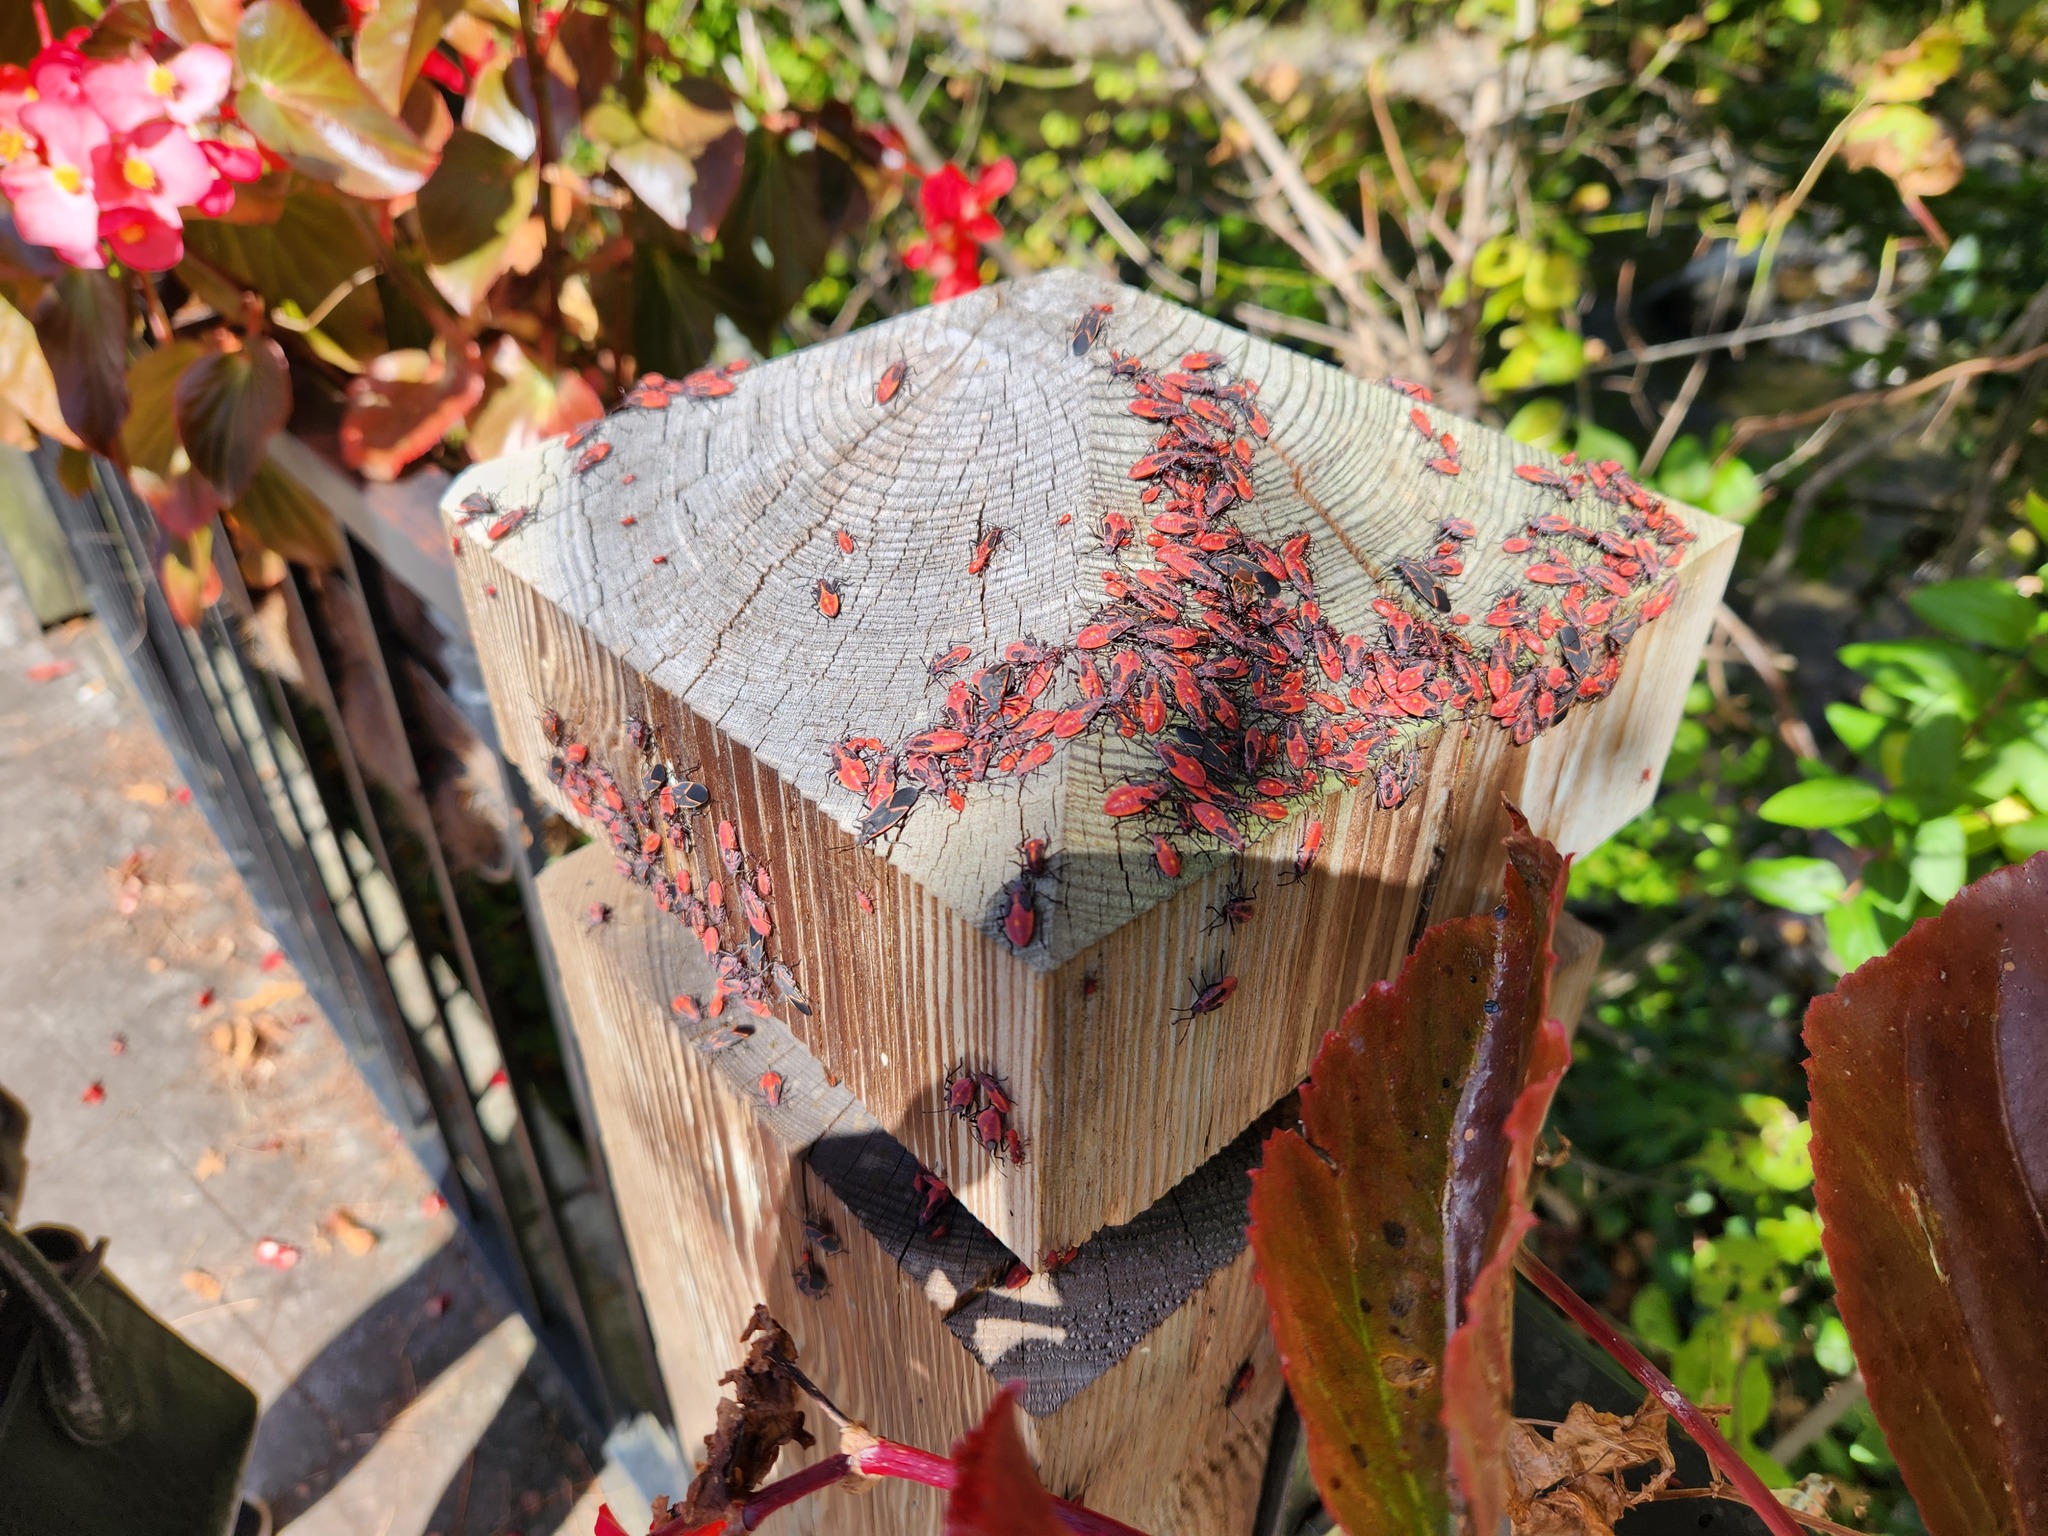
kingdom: Animalia
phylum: Arthropoda
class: Insecta
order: Hemiptera
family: Rhopalidae
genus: Boisea
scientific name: Boisea trivittata
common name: Boxelder bug
